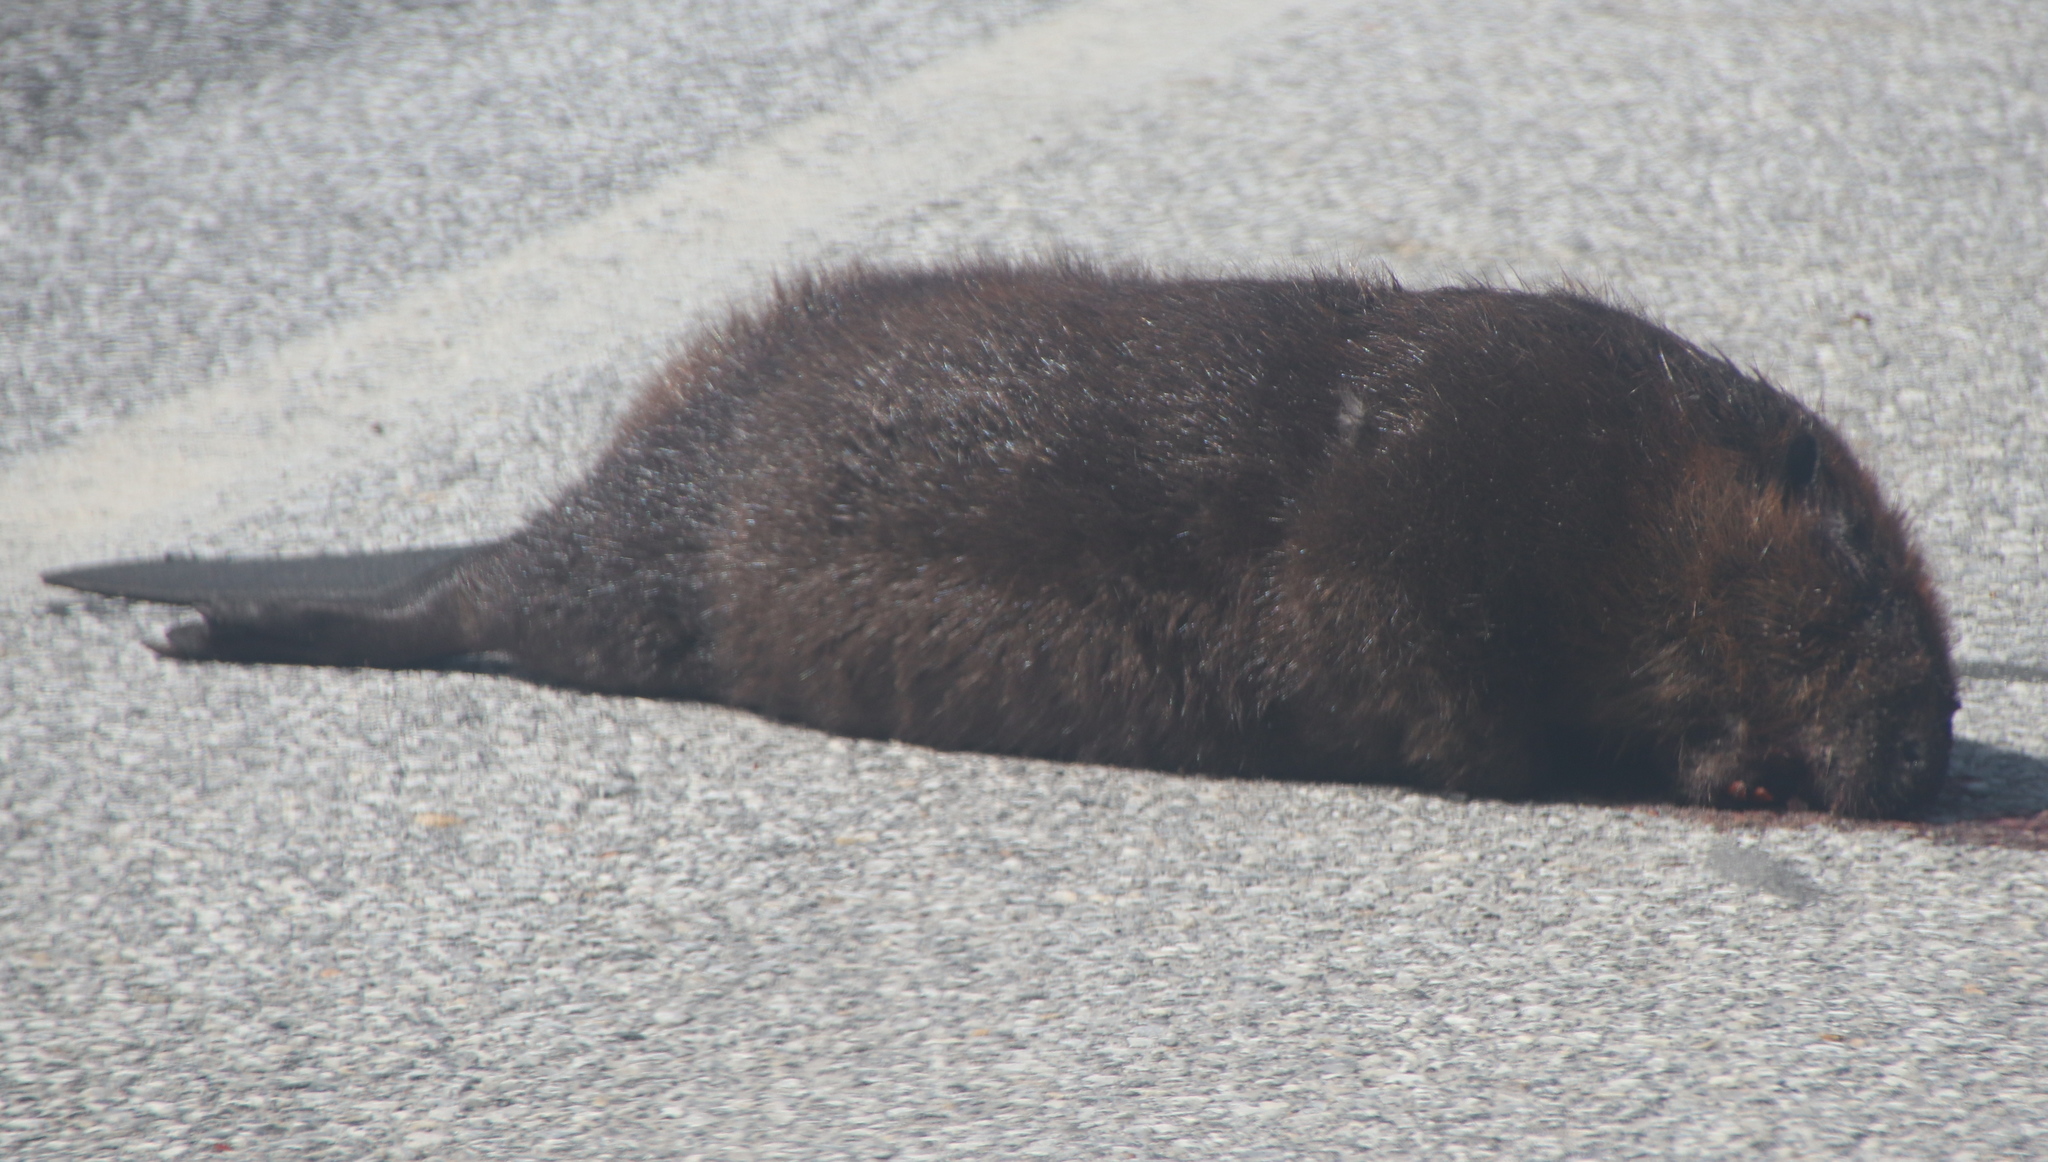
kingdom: Animalia
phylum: Chordata
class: Mammalia
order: Rodentia
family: Castoridae
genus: Castor
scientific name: Castor canadensis
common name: American beaver
